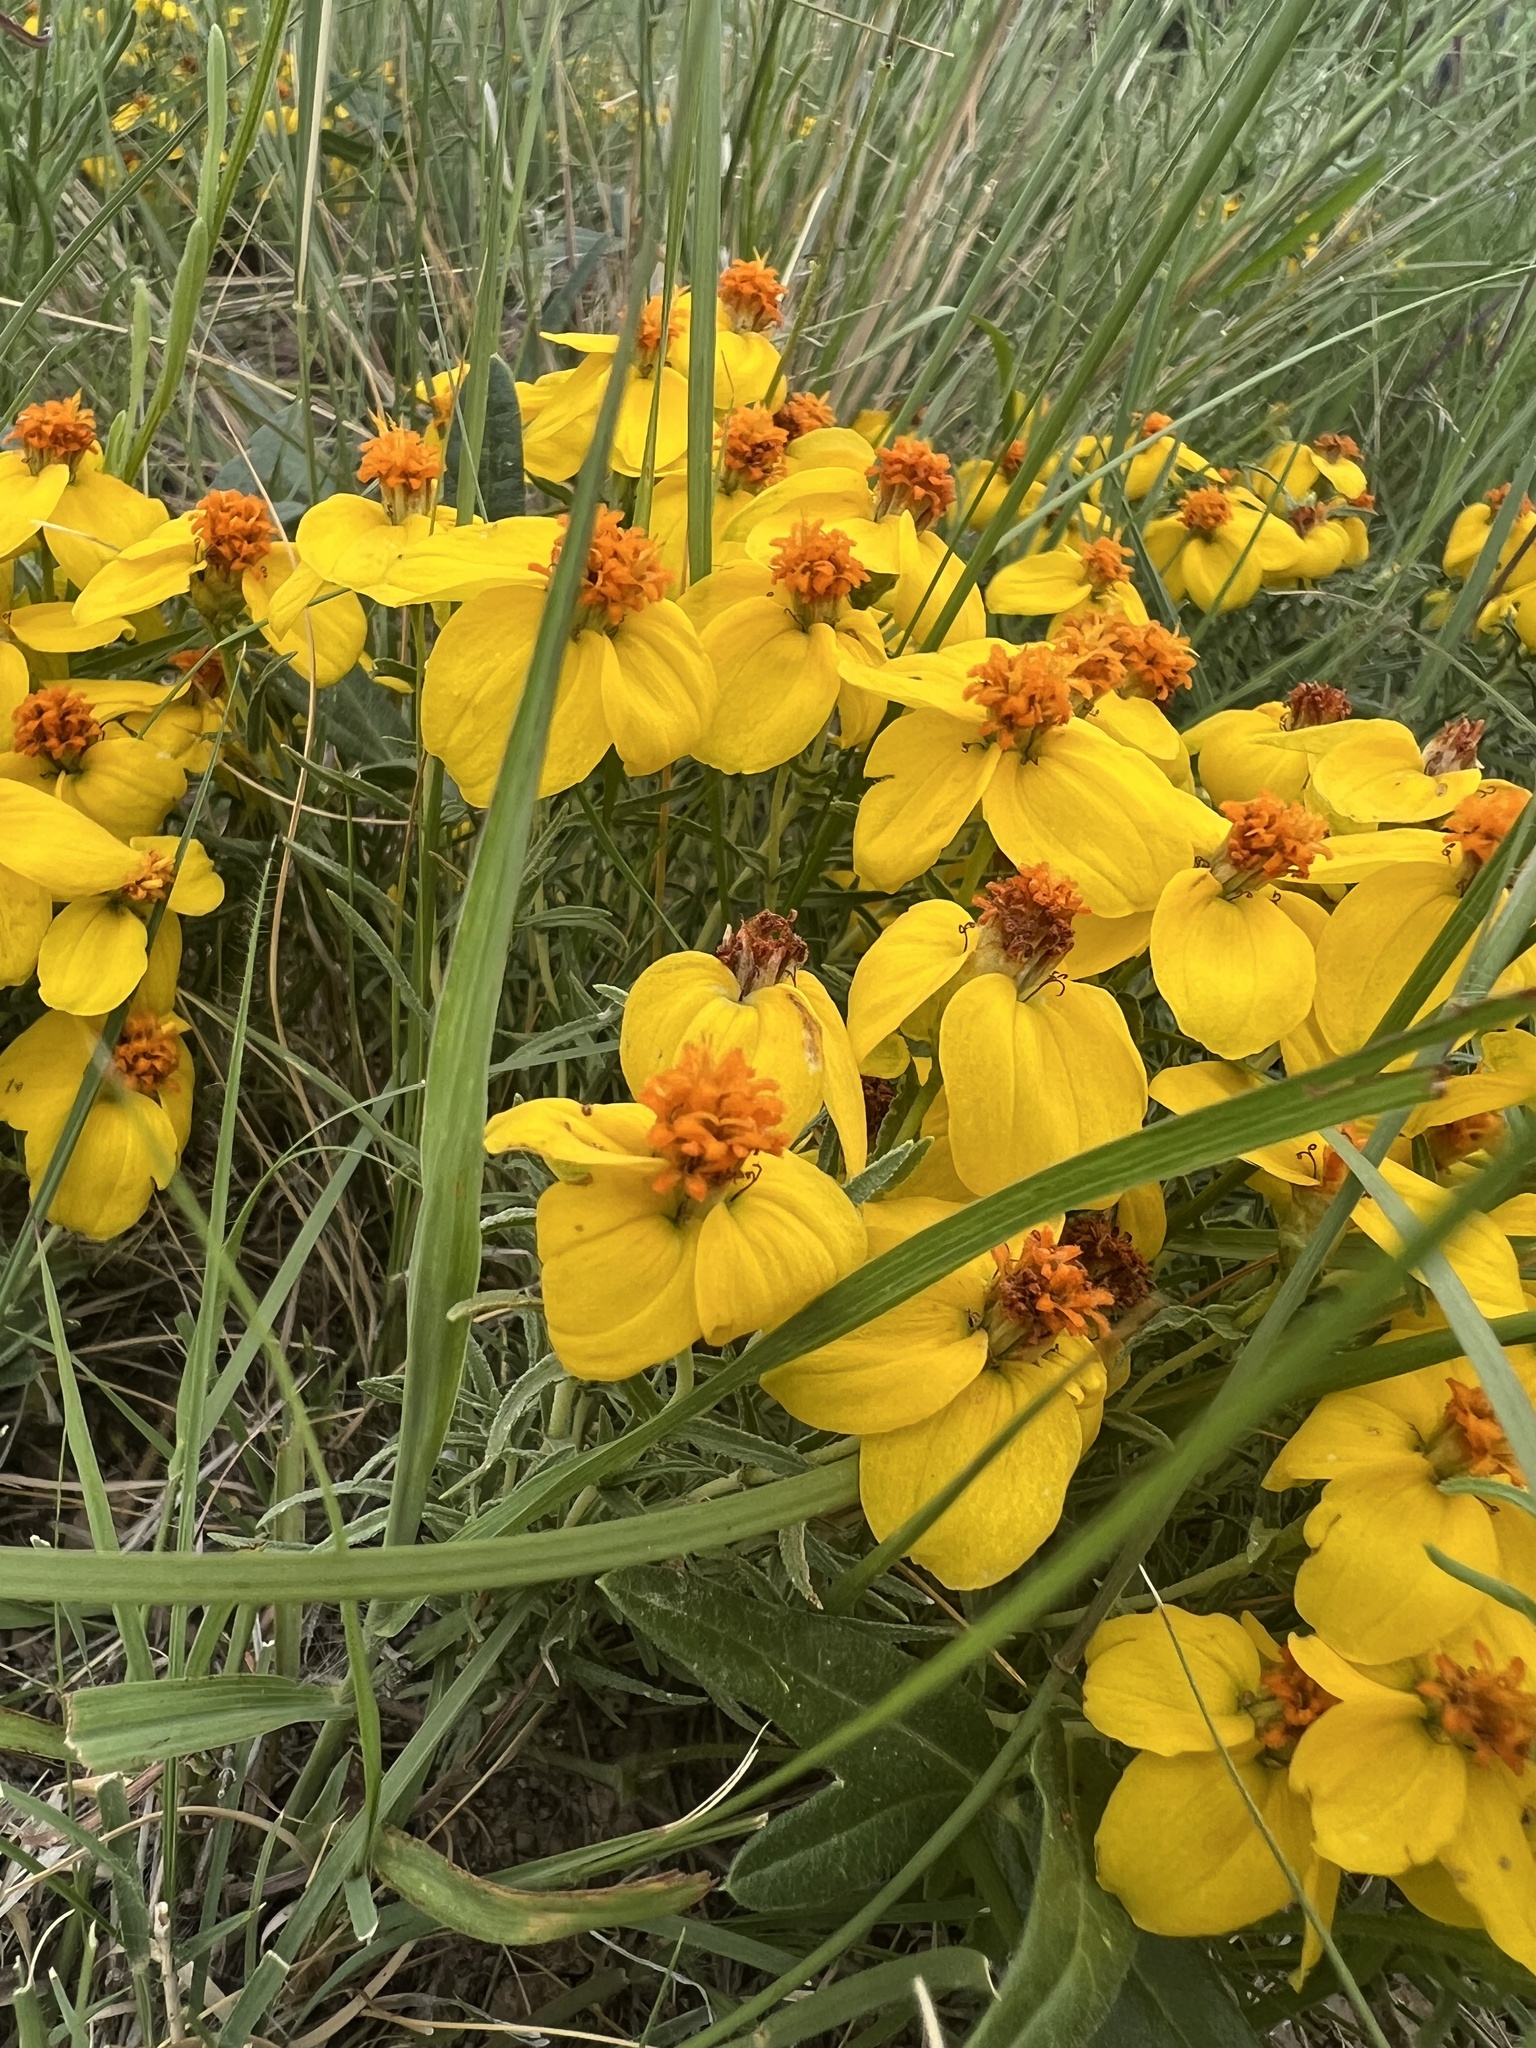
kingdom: Plantae
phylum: Tracheophyta
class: Magnoliopsida
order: Asterales
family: Asteraceae
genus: Zinnia
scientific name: Zinnia grandiflora
